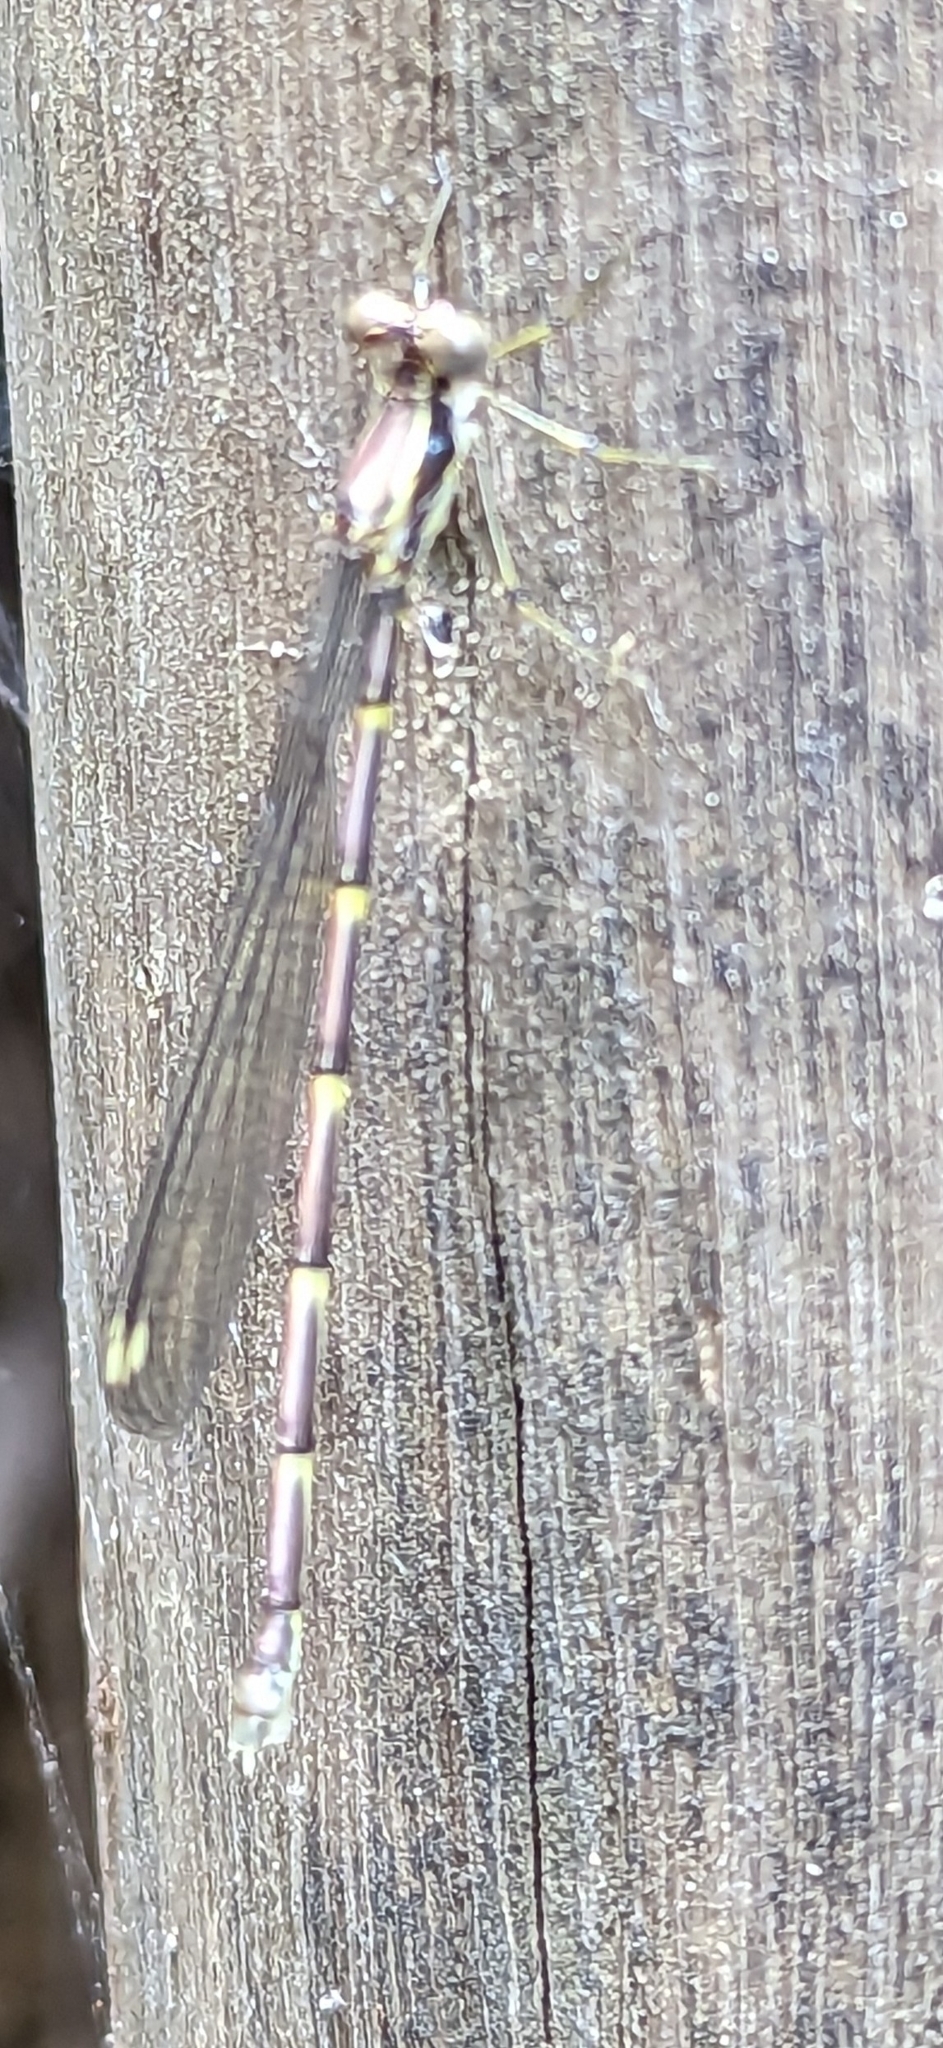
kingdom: Animalia
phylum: Arthropoda
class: Insecta
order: Odonata
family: Synlestidae
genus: Episynlestes
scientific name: Episynlestes albicaudus
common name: Southern whitetip
